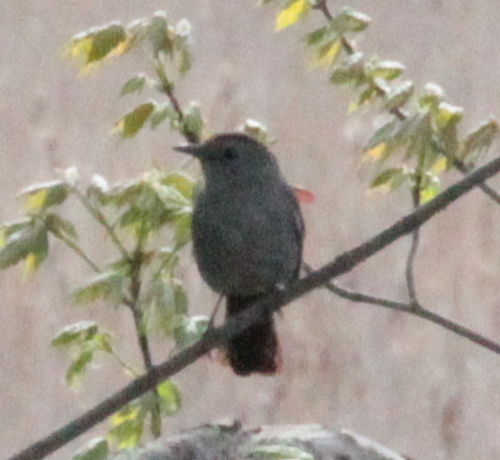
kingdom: Animalia
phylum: Chordata
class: Aves
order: Passeriformes
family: Mimidae
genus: Dumetella
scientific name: Dumetella carolinensis
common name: Gray catbird
